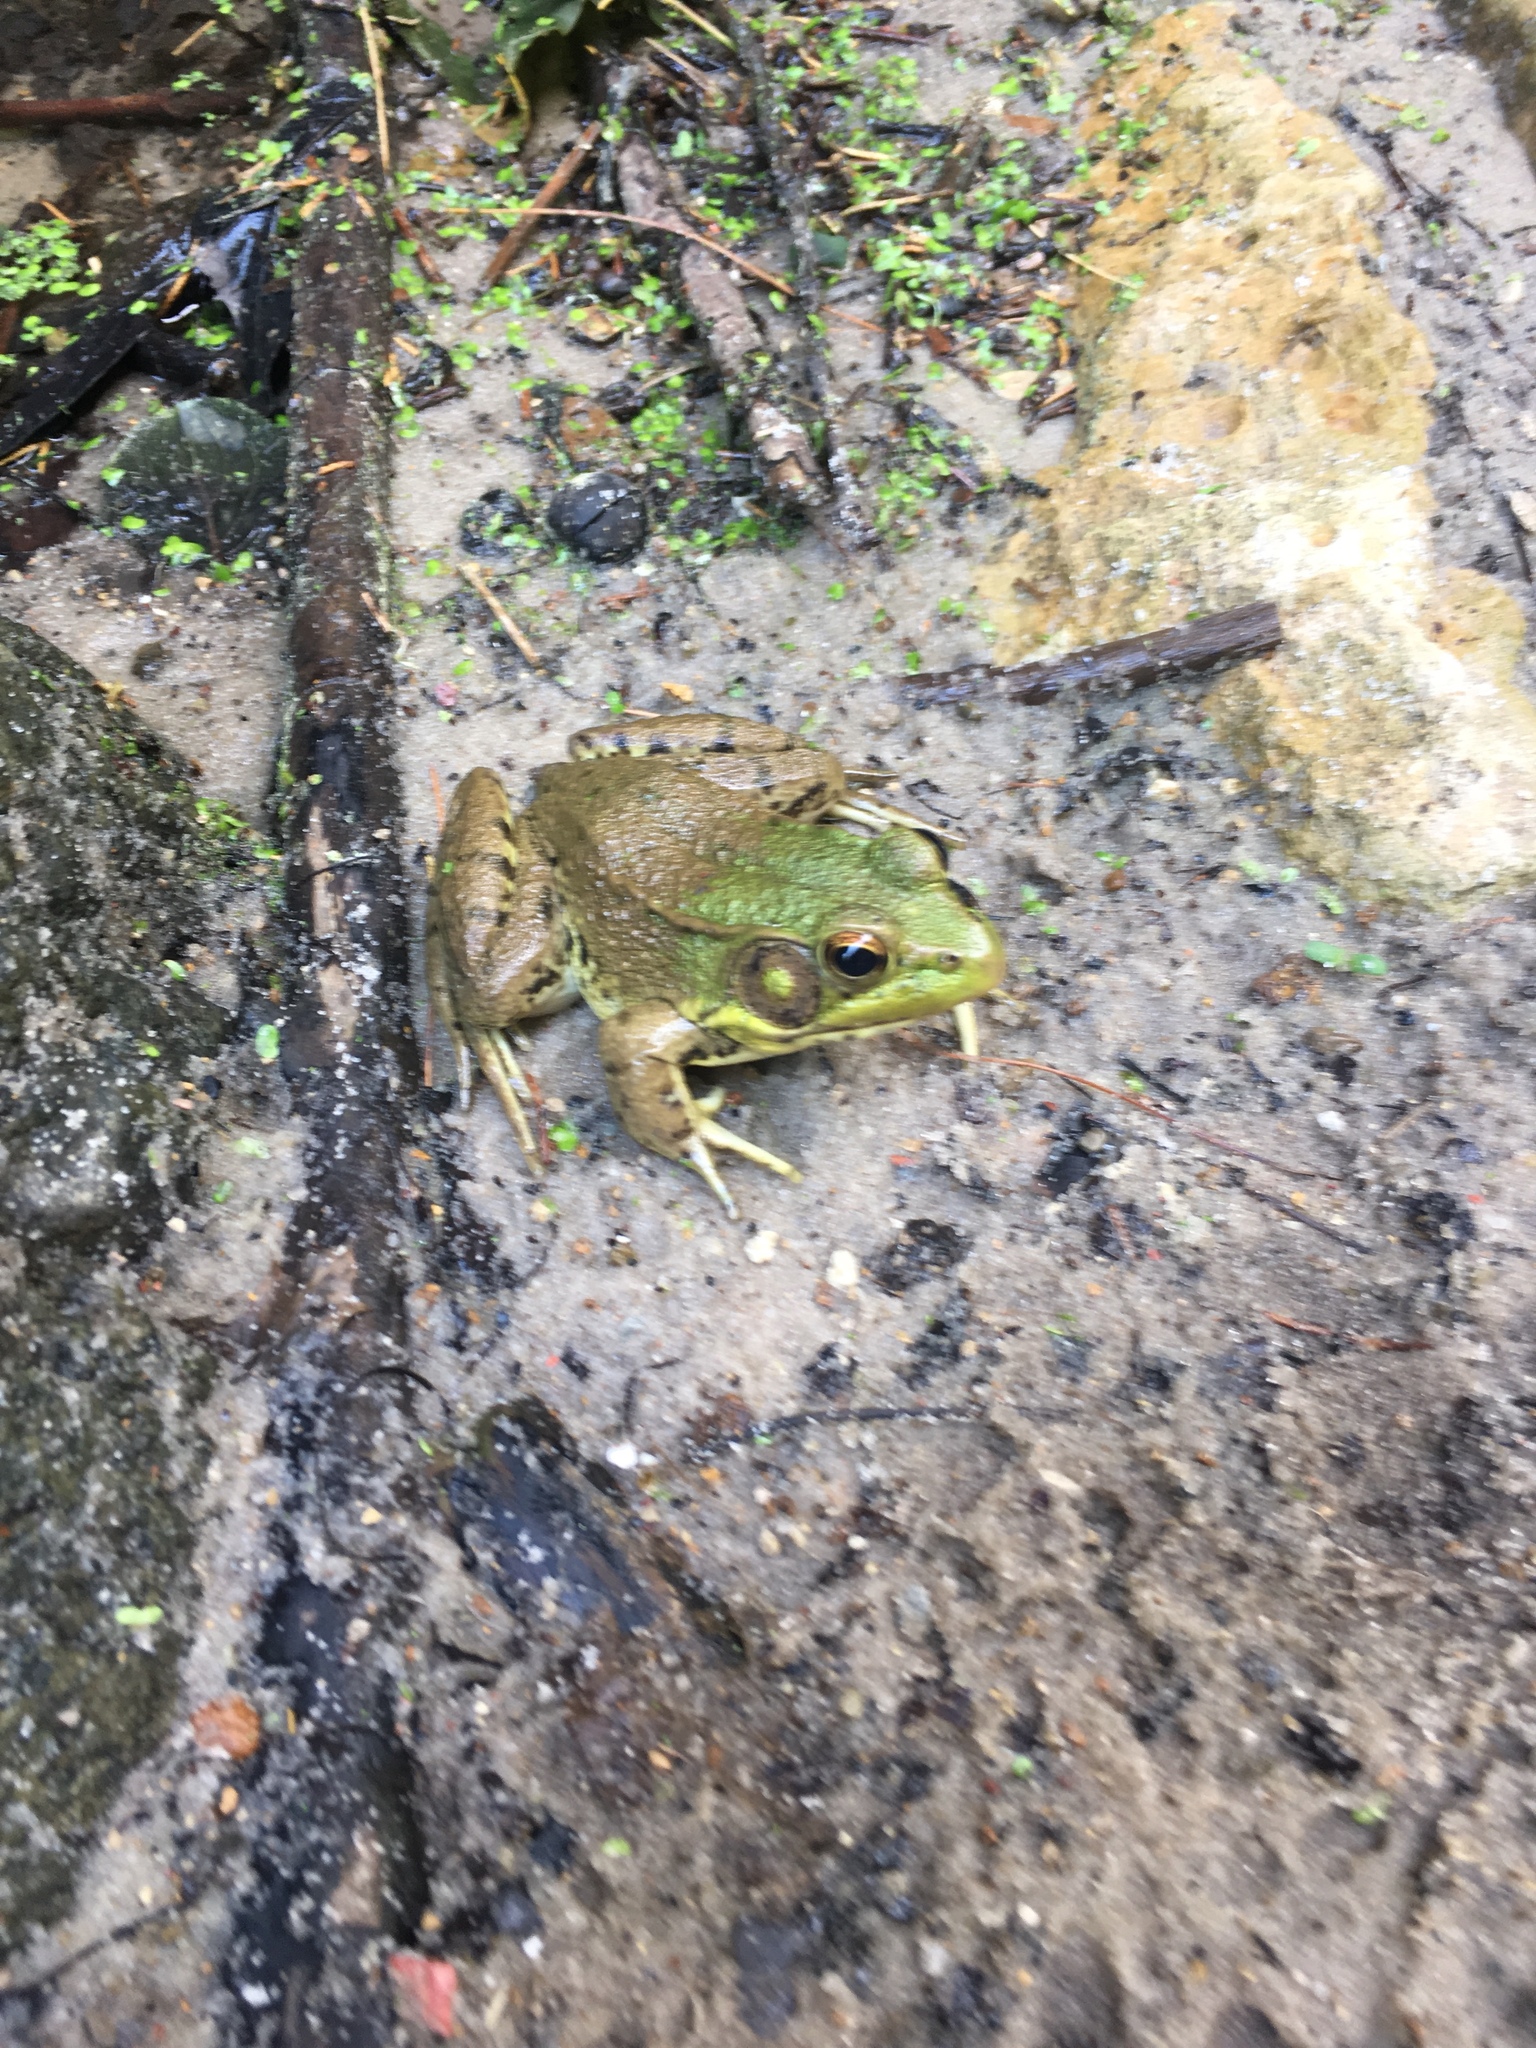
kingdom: Animalia
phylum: Chordata
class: Amphibia
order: Anura
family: Ranidae
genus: Lithobates
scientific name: Lithobates clamitans
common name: Green frog
